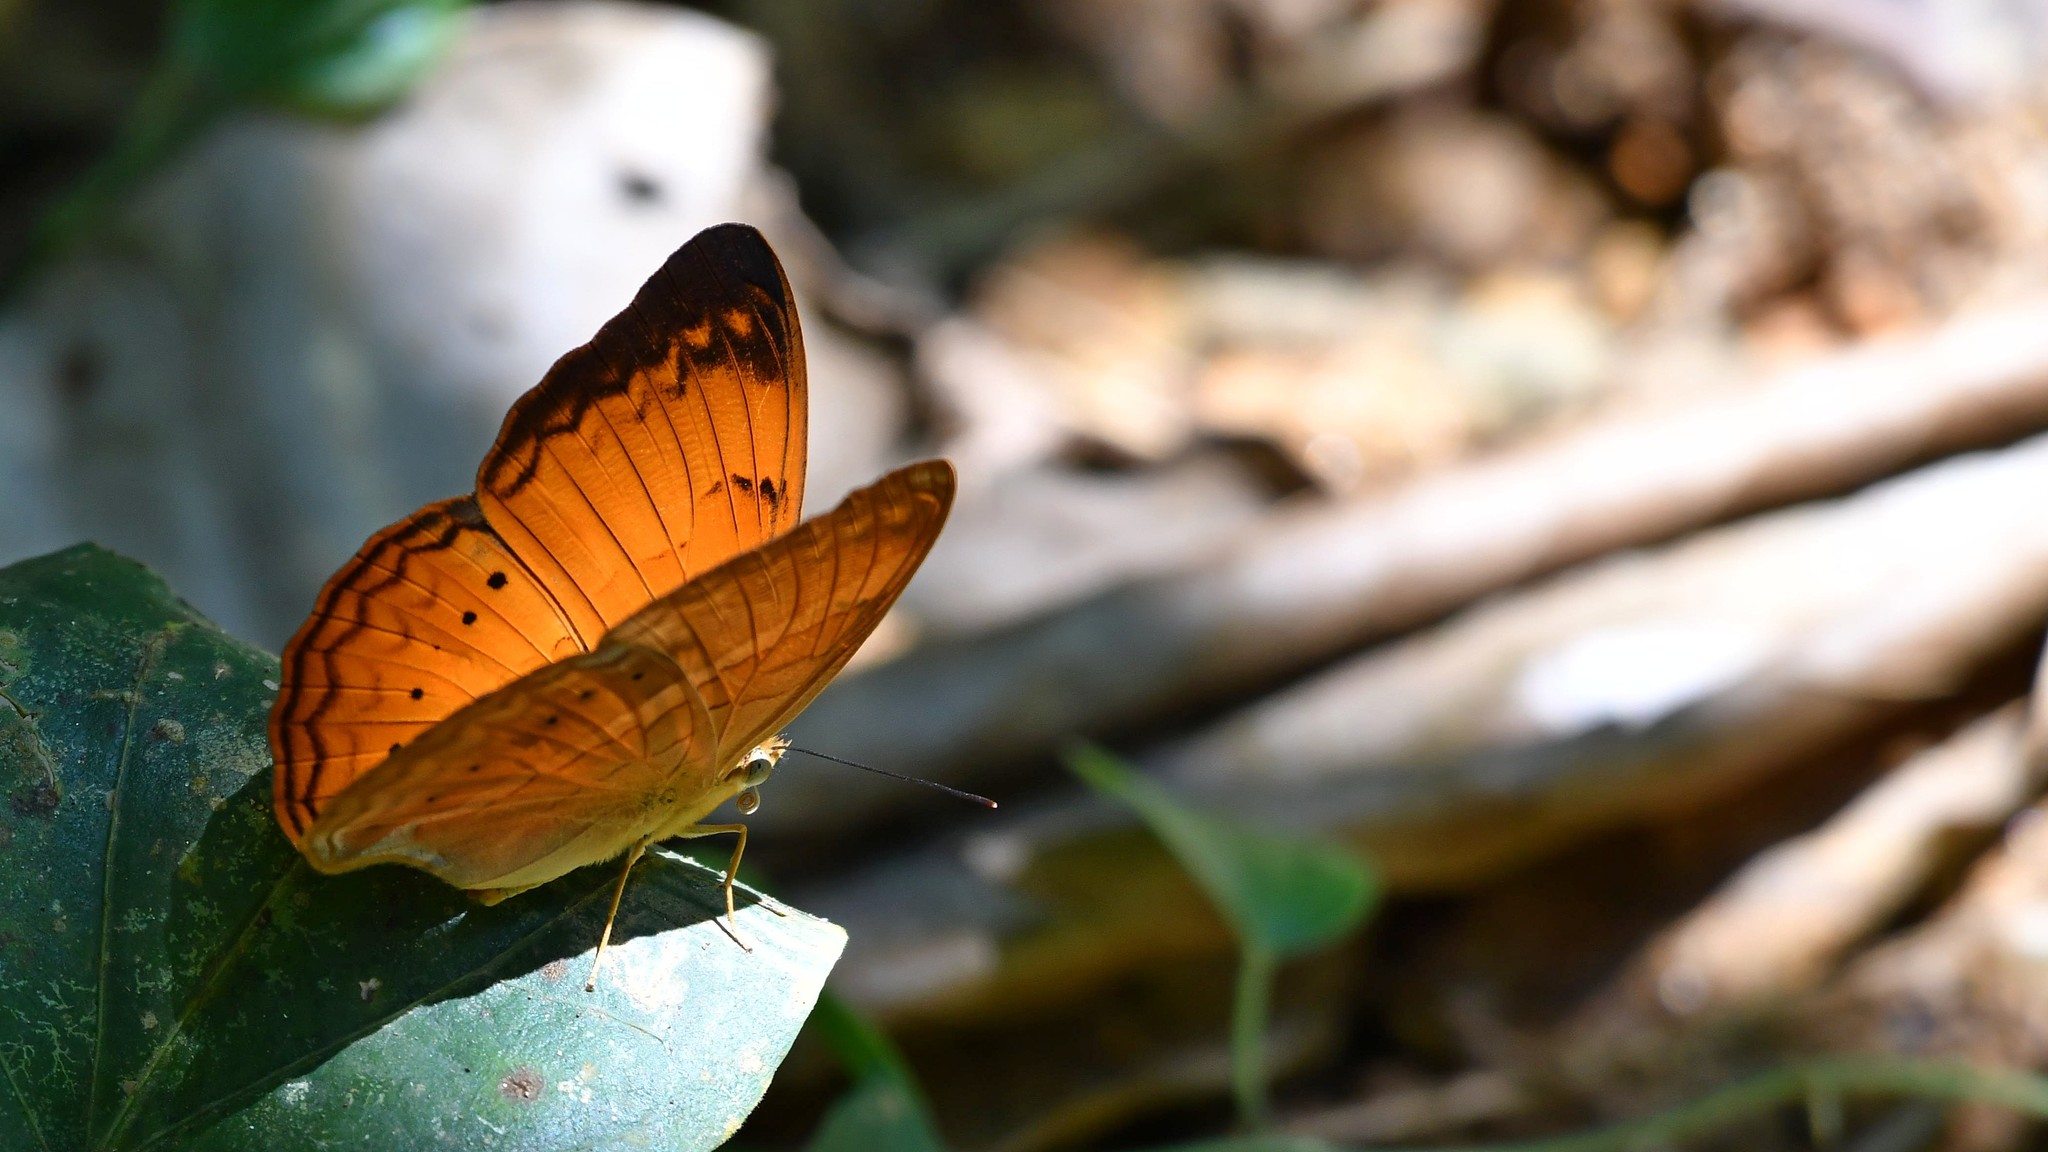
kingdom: Animalia
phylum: Arthropoda
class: Insecta
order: Lepidoptera
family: Nymphalidae
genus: Cirrochroa
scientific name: Cirrochroa thais
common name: Tamil yeoman
